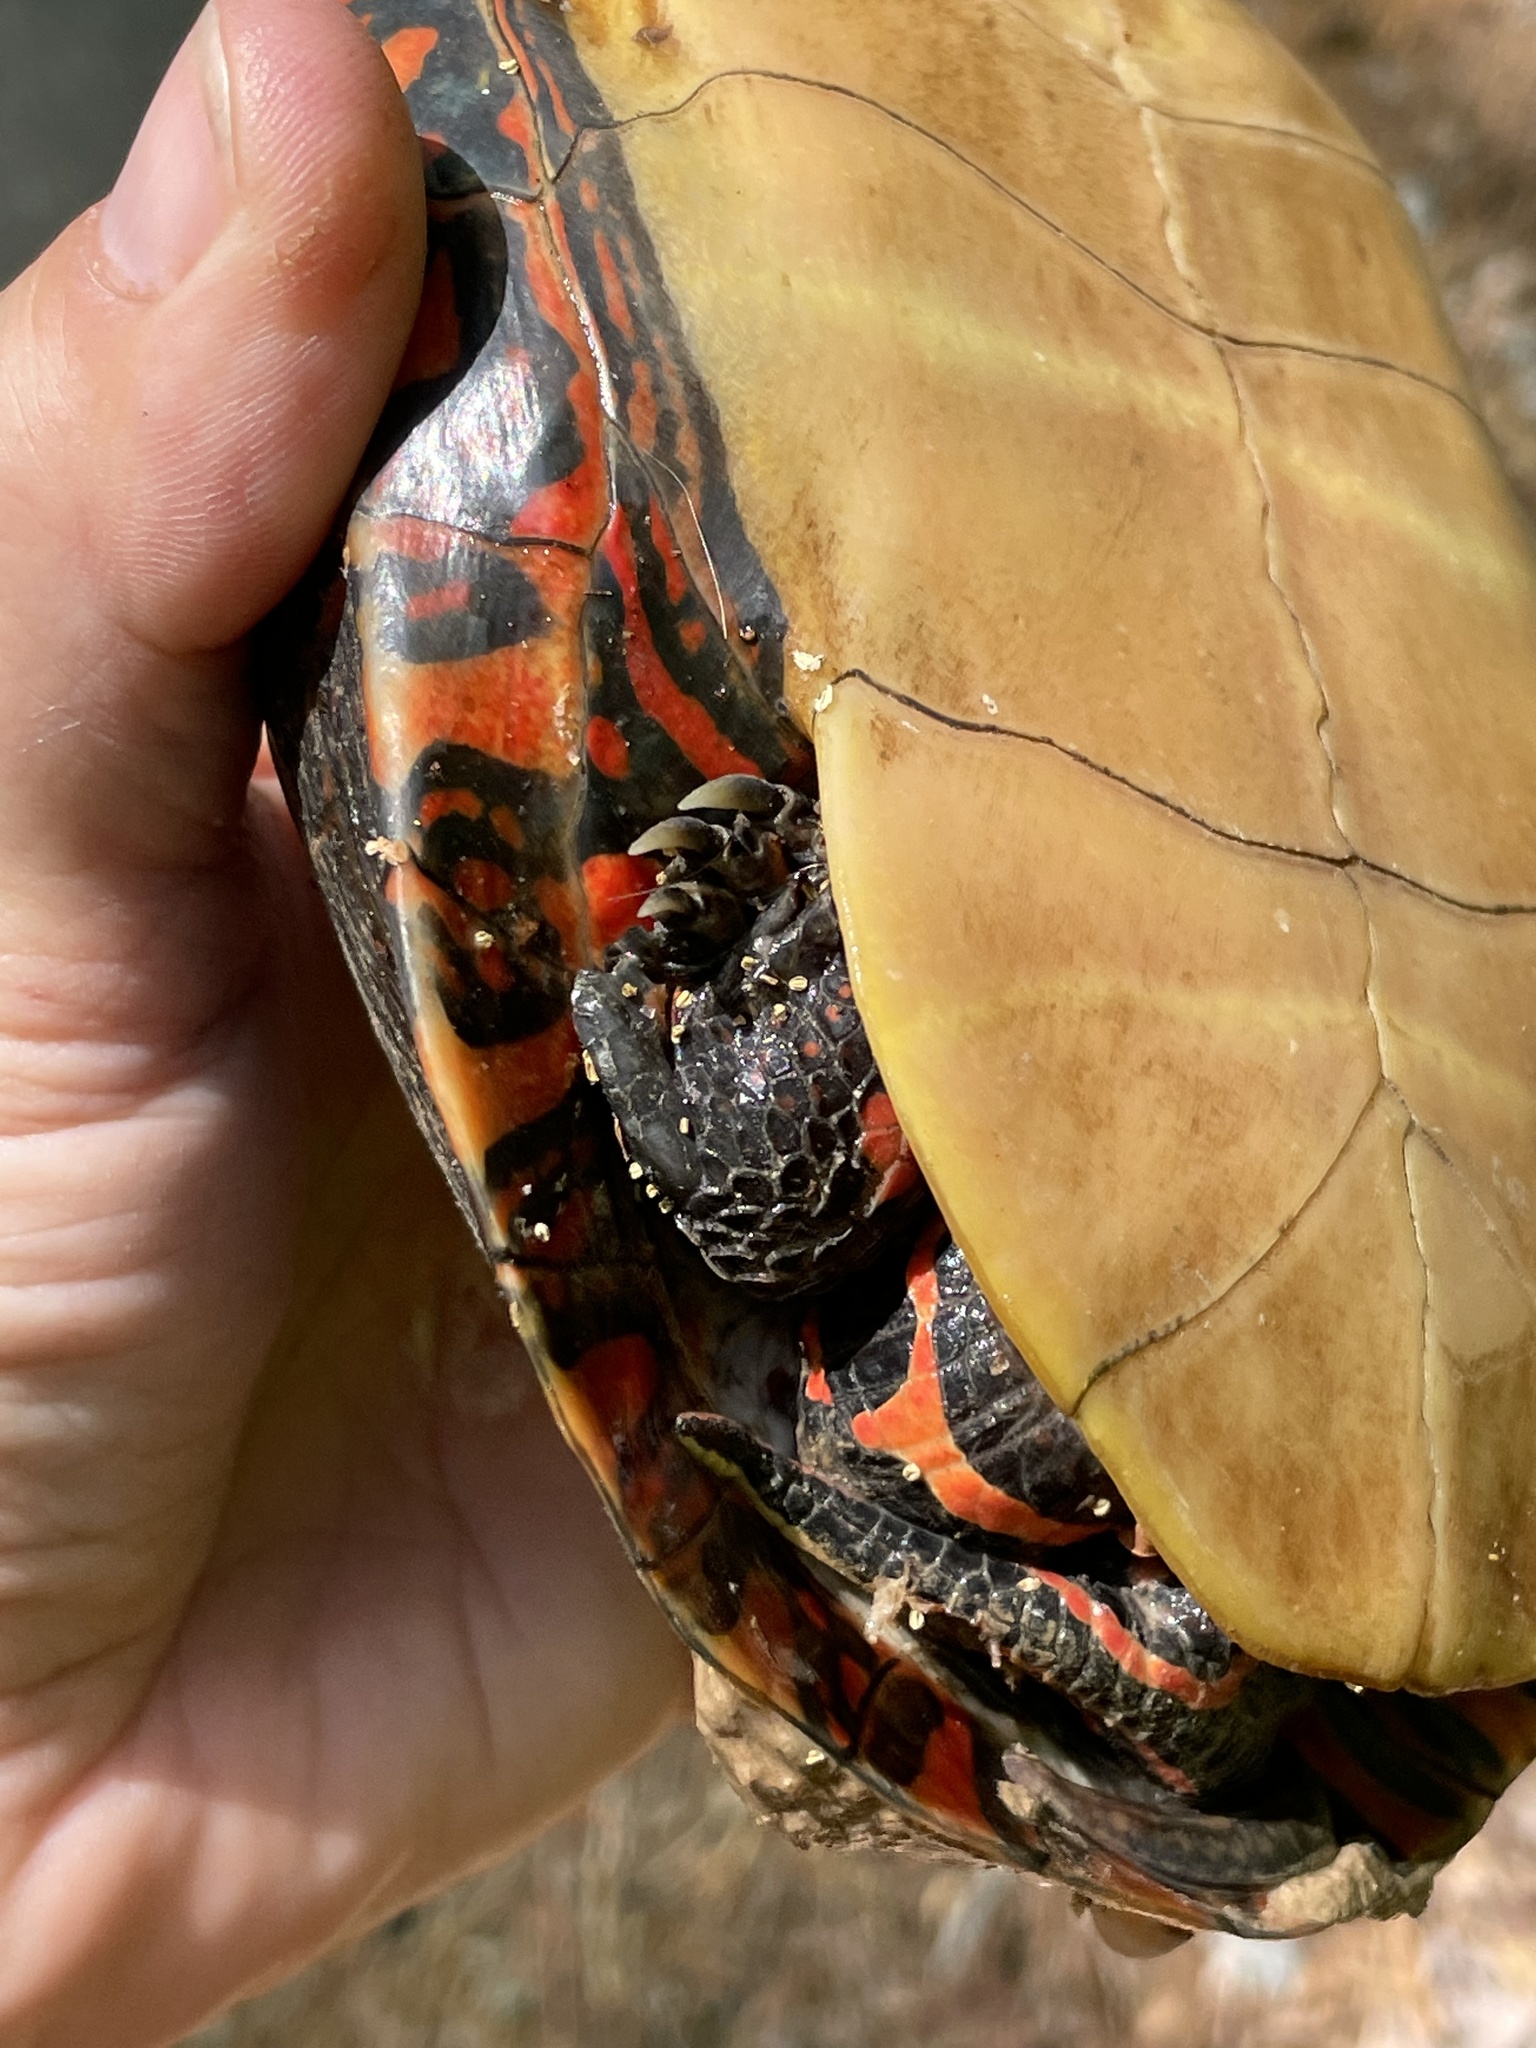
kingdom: Animalia
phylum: Chordata
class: Testudines
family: Emydidae
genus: Chrysemys
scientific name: Chrysemys picta
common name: Painted turtle
